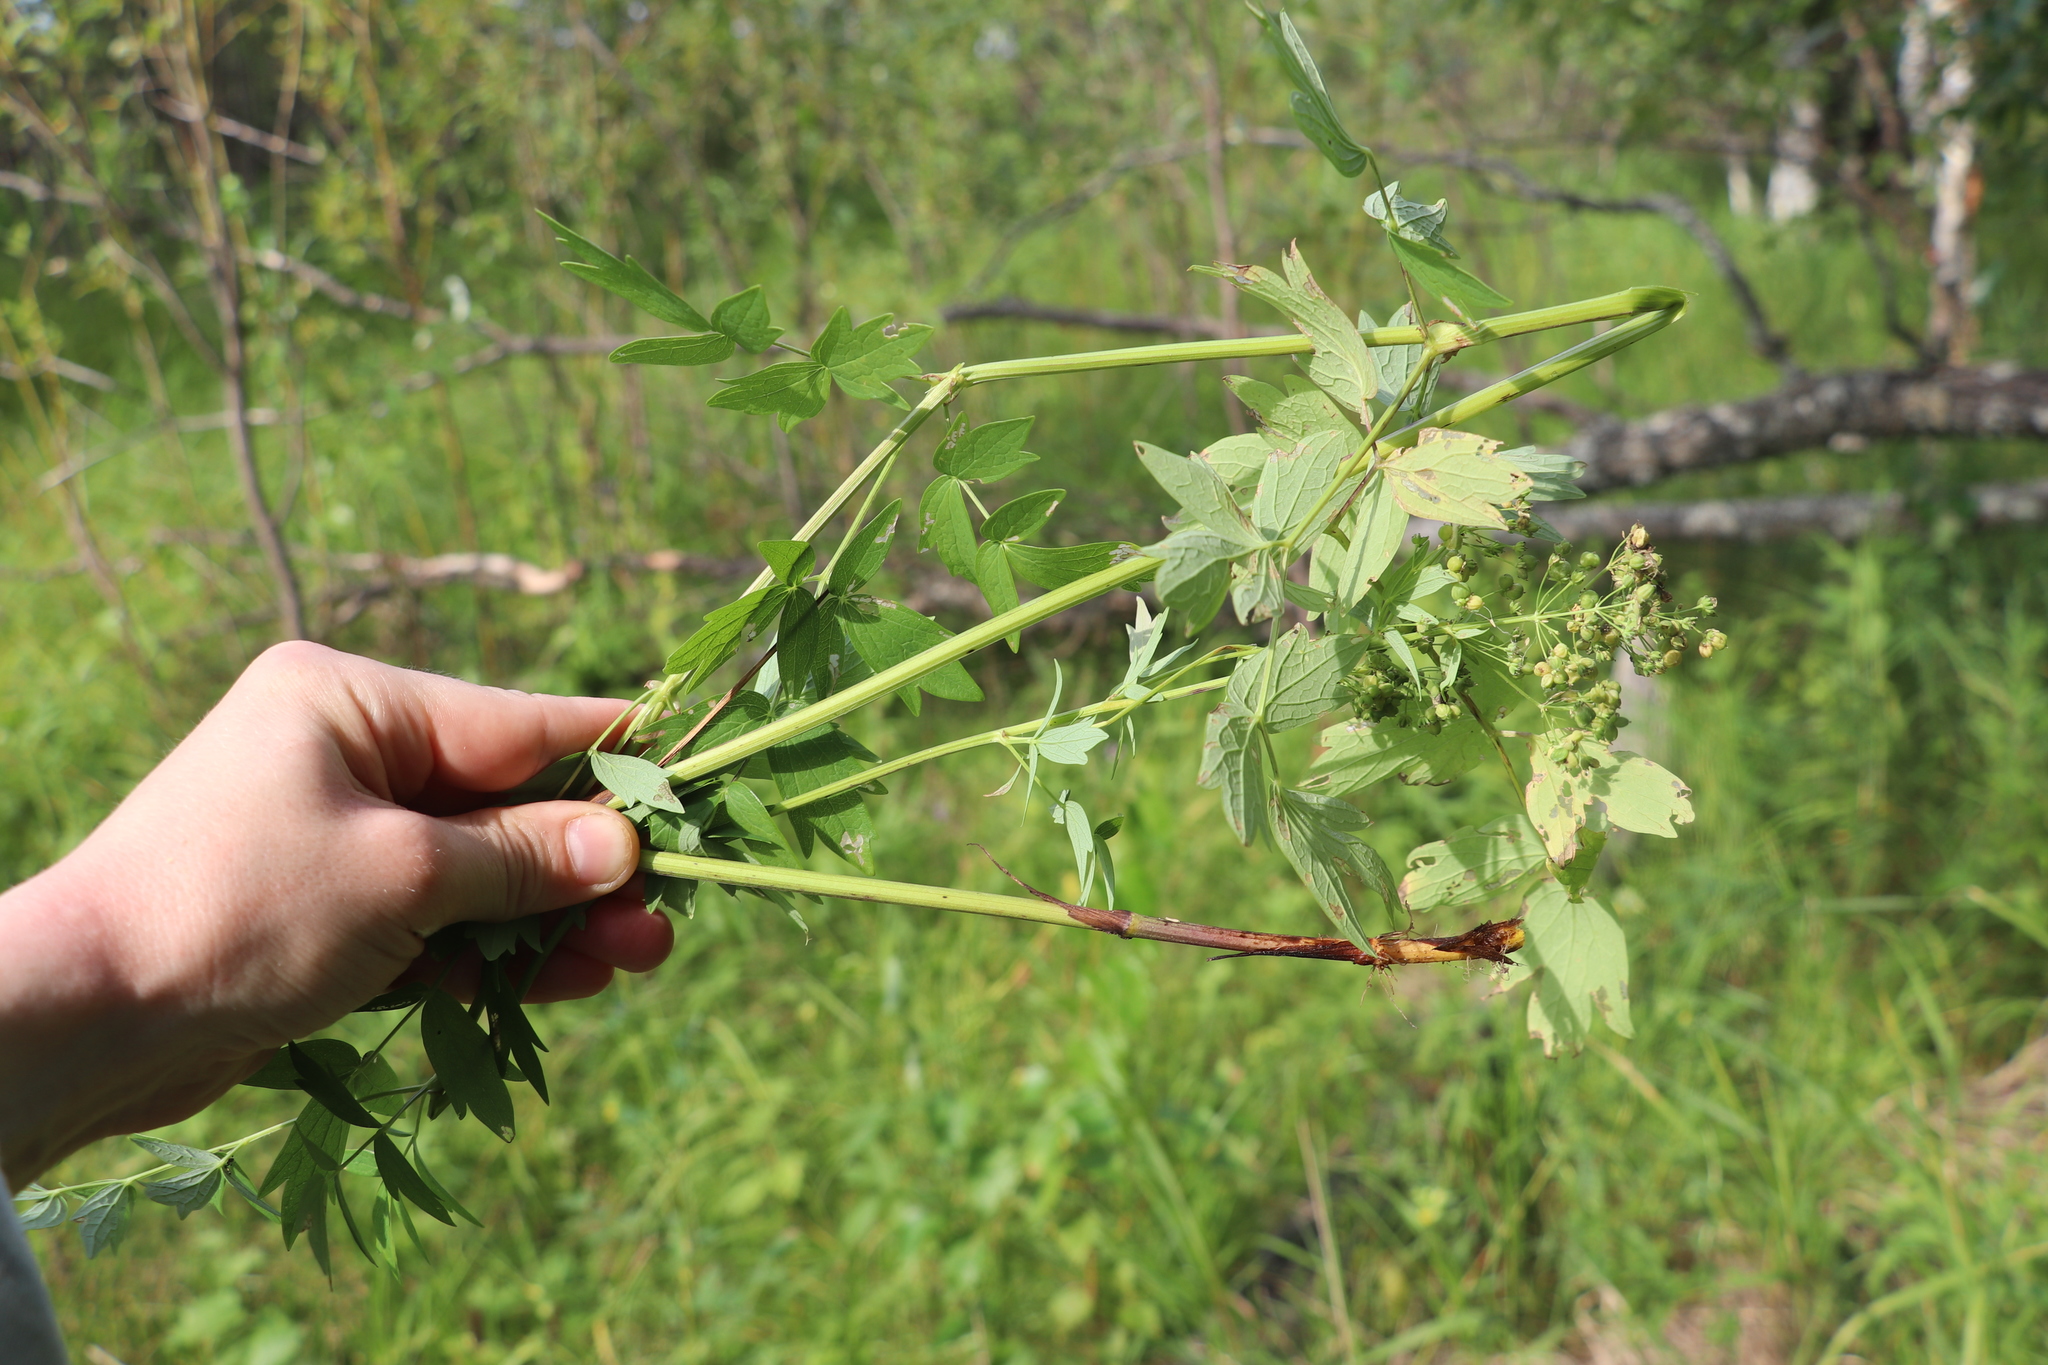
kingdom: Plantae
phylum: Tracheophyta
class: Magnoliopsida
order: Ranunculales
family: Ranunculaceae
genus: Thalictrum
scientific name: Thalictrum simplex
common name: Small meadow-rue
